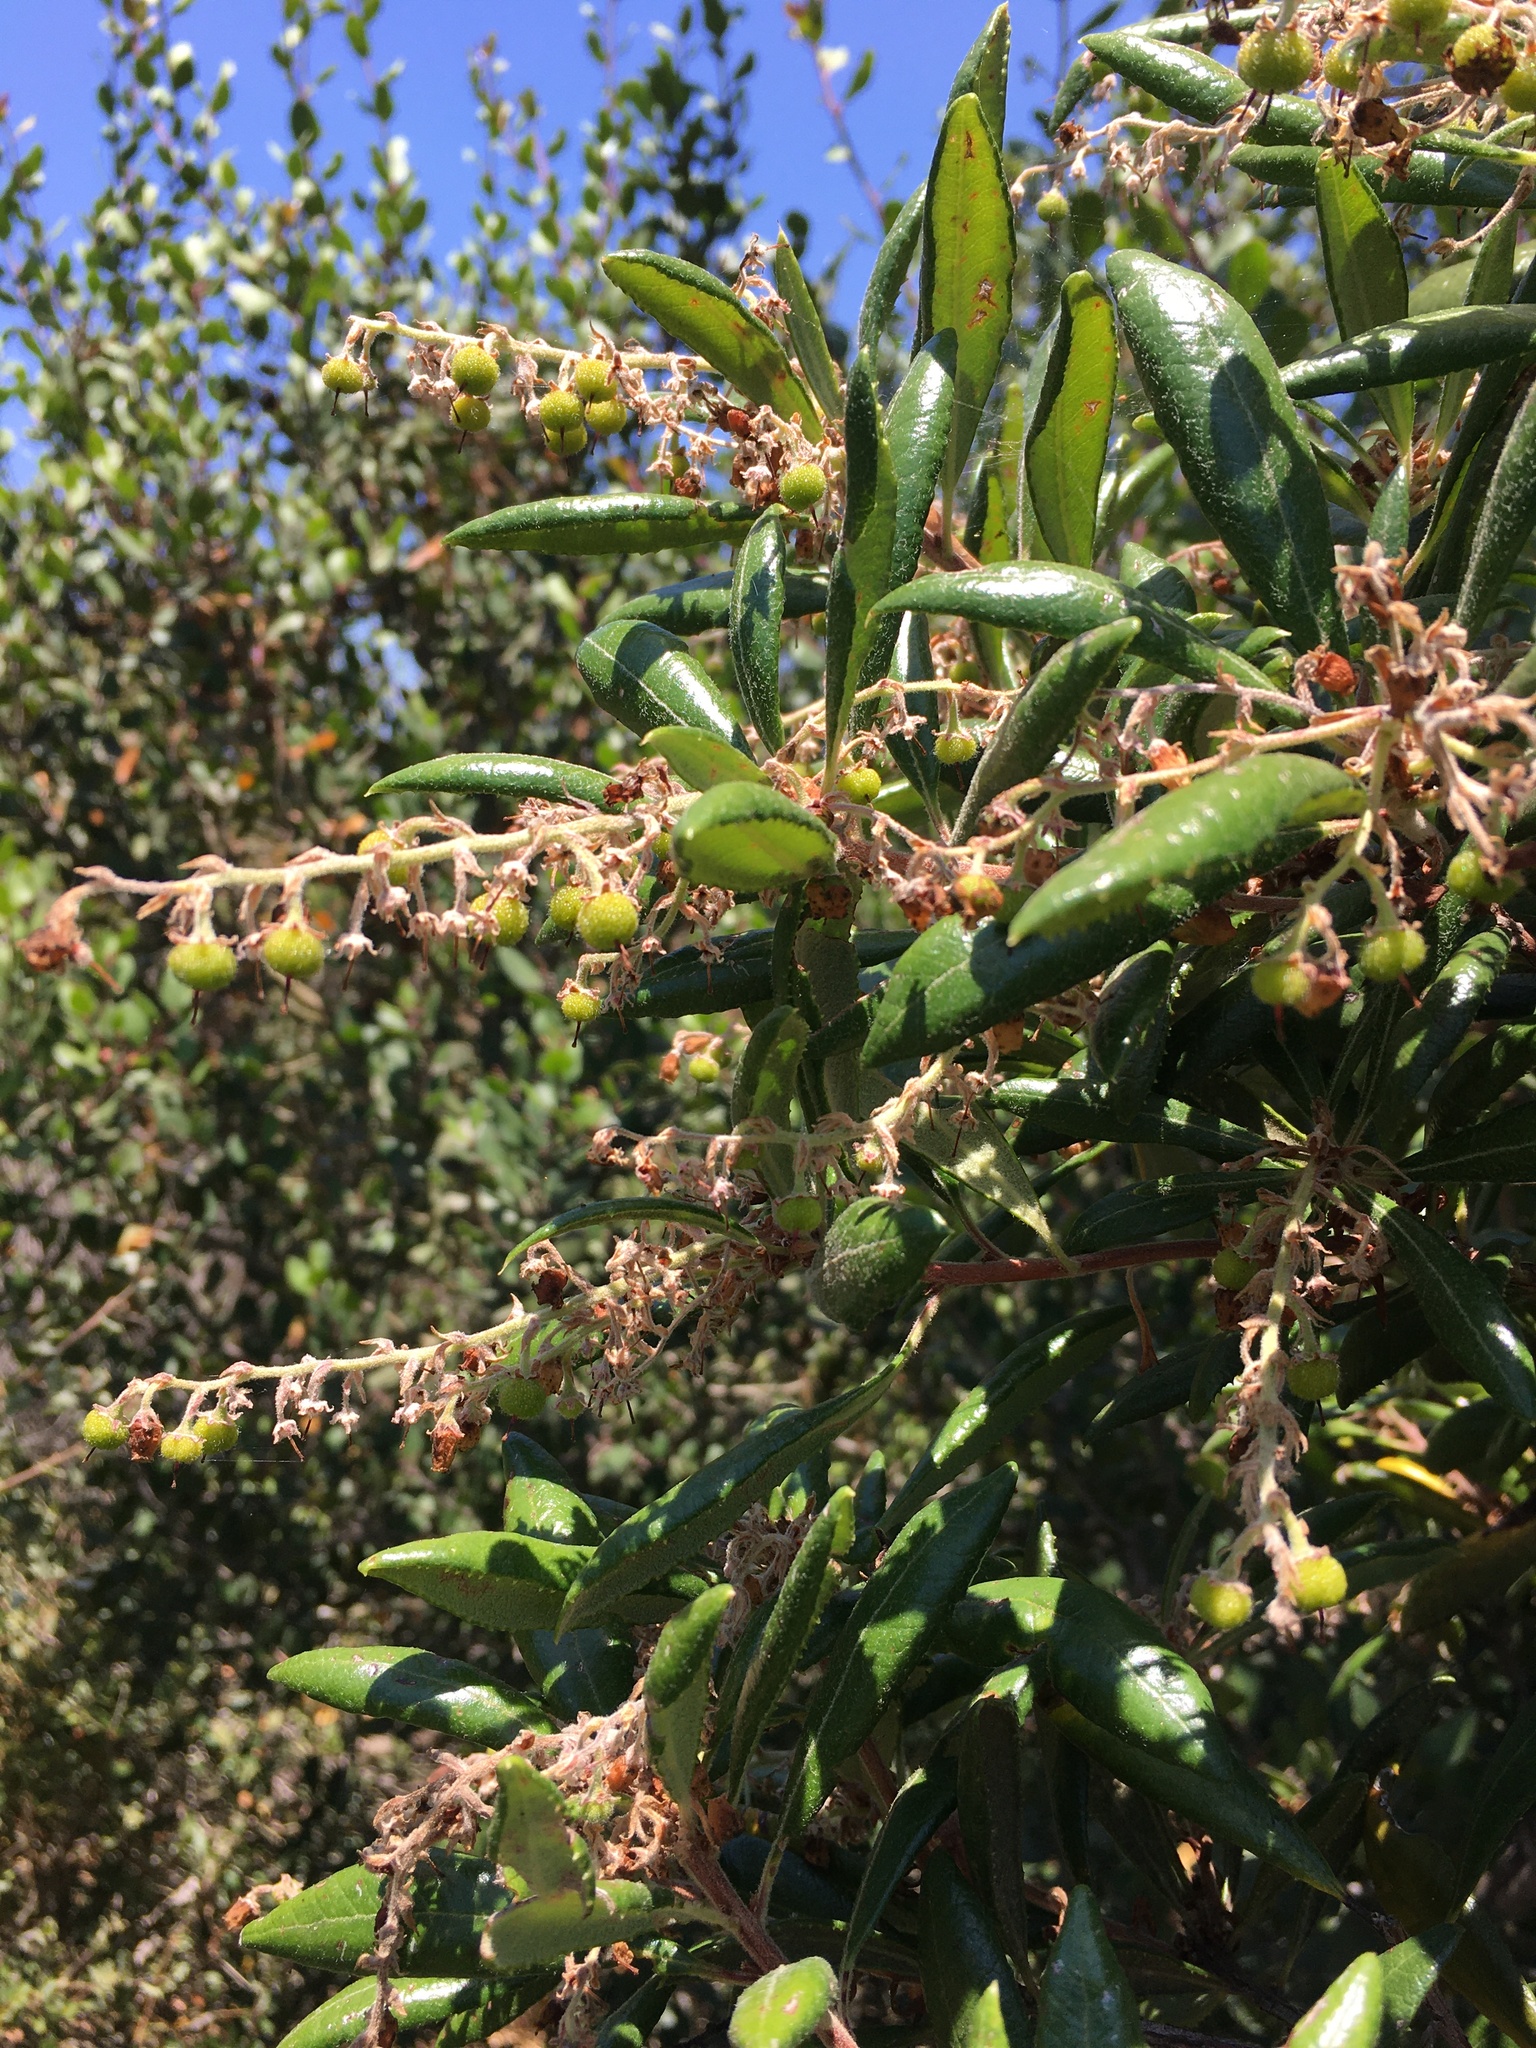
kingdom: Plantae
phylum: Tracheophyta
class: Magnoliopsida
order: Ericales
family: Ericaceae
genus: Comarostaphylis
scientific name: Comarostaphylis diversifolia
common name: Summer-holly
